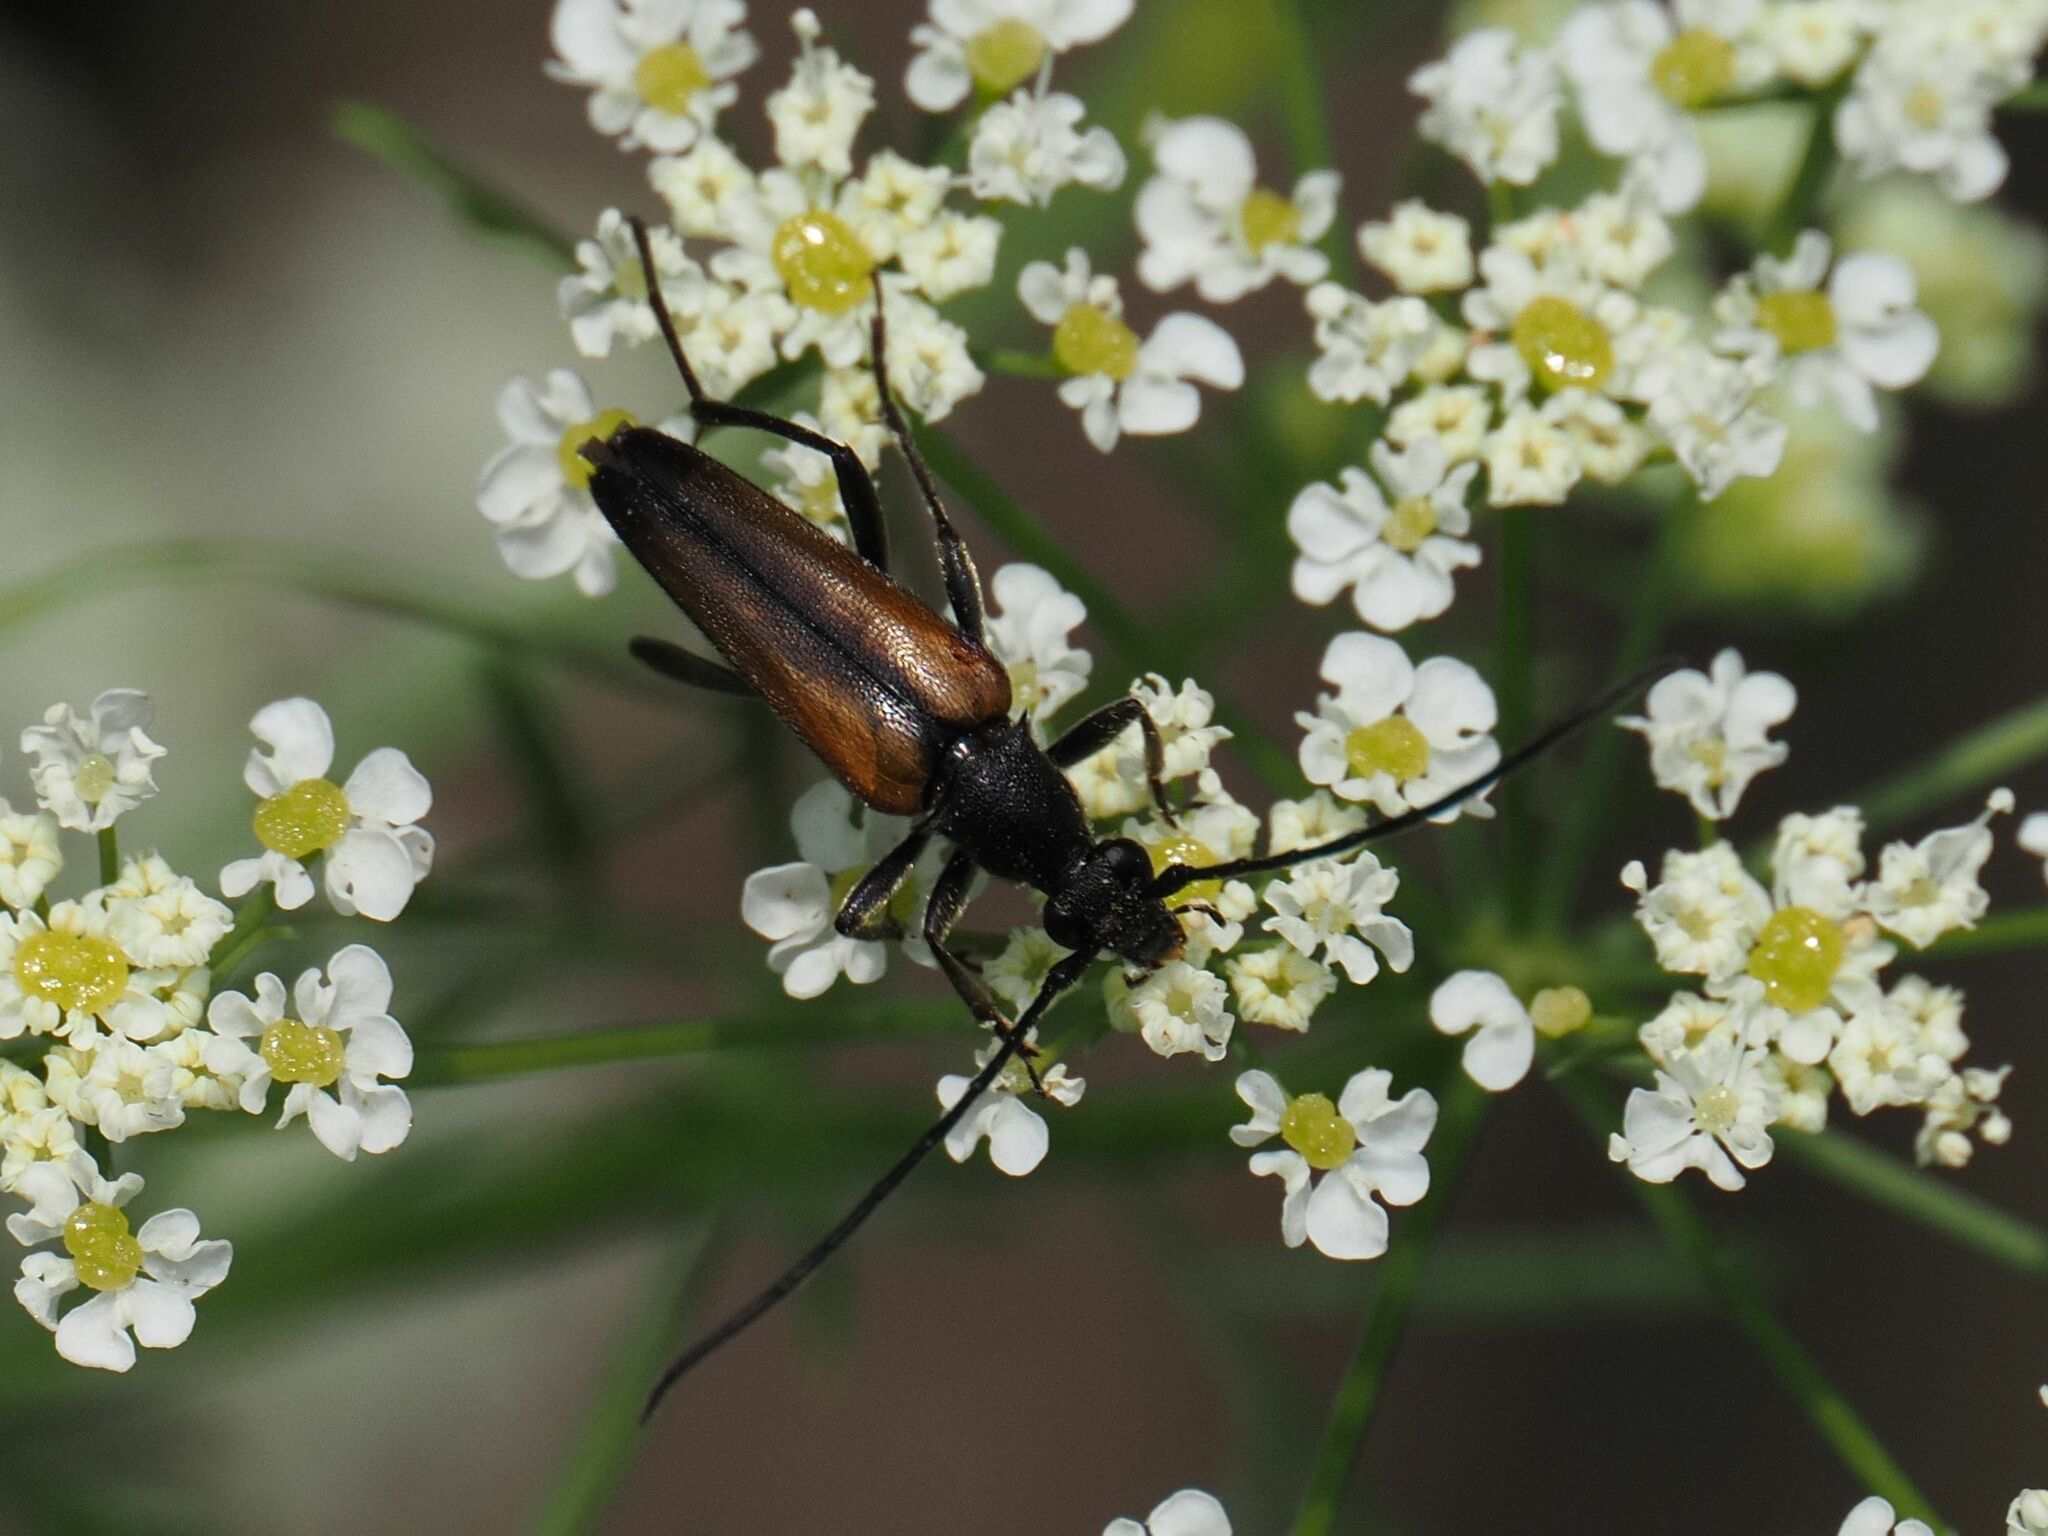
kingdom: Animalia
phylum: Arthropoda
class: Insecta
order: Coleoptera
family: Cerambycidae
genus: Stenurella
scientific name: Stenurella melanura
